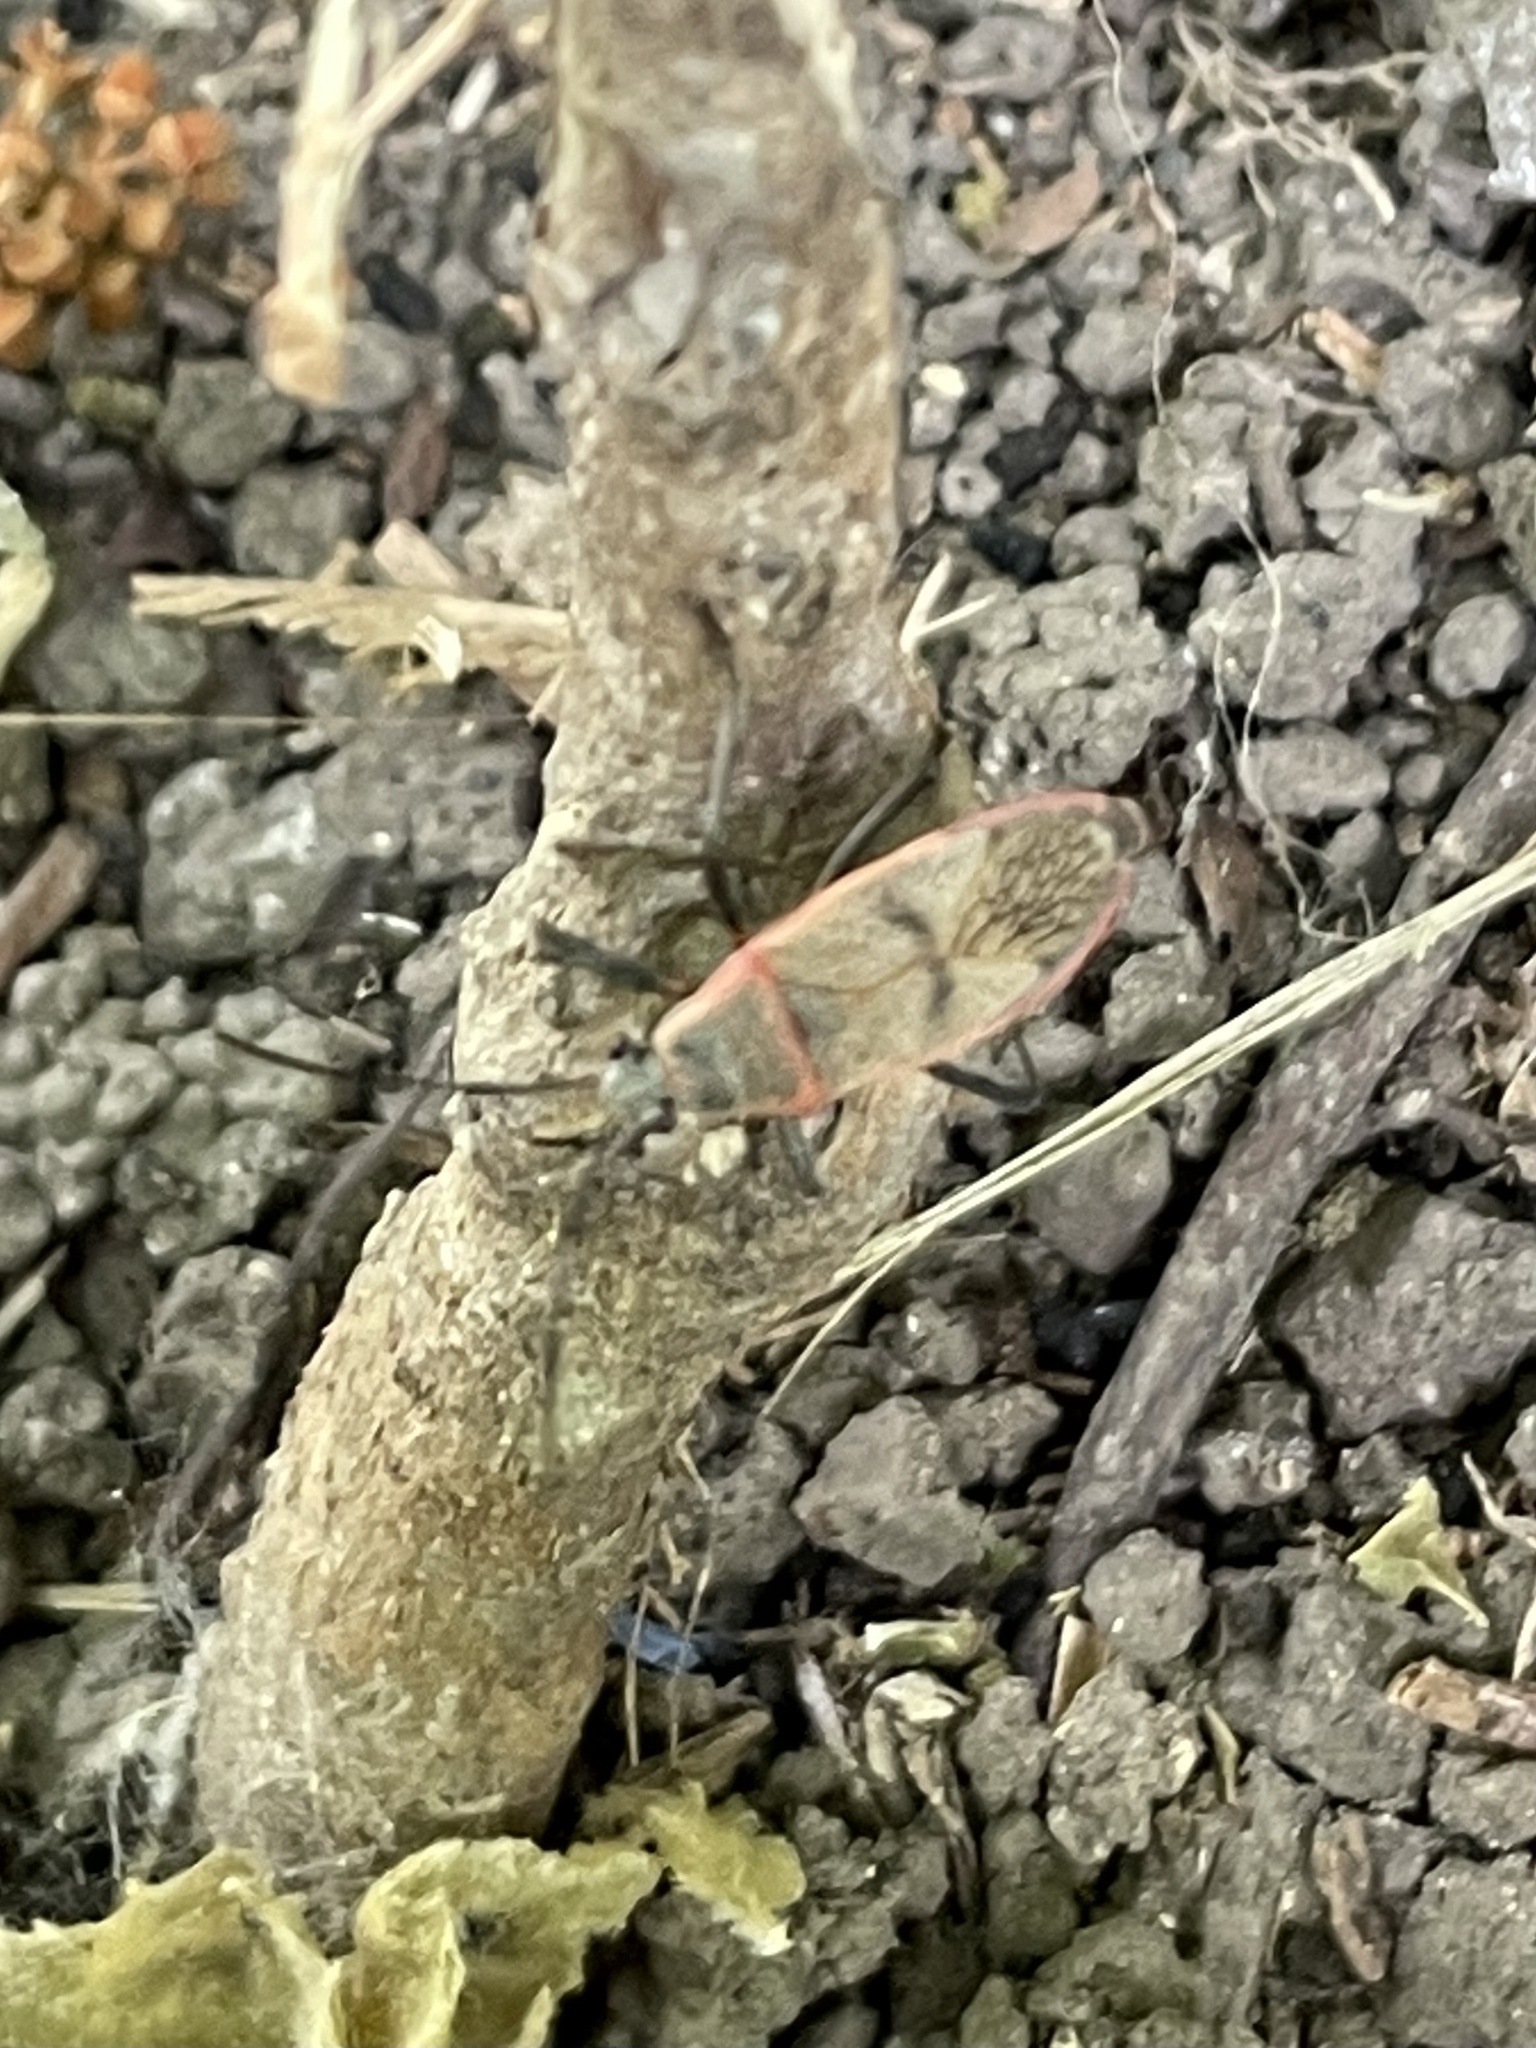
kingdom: Animalia
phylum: Arthropoda
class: Insecta
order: Hemiptera
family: Largidae
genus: Largus
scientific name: Largus maculatus
